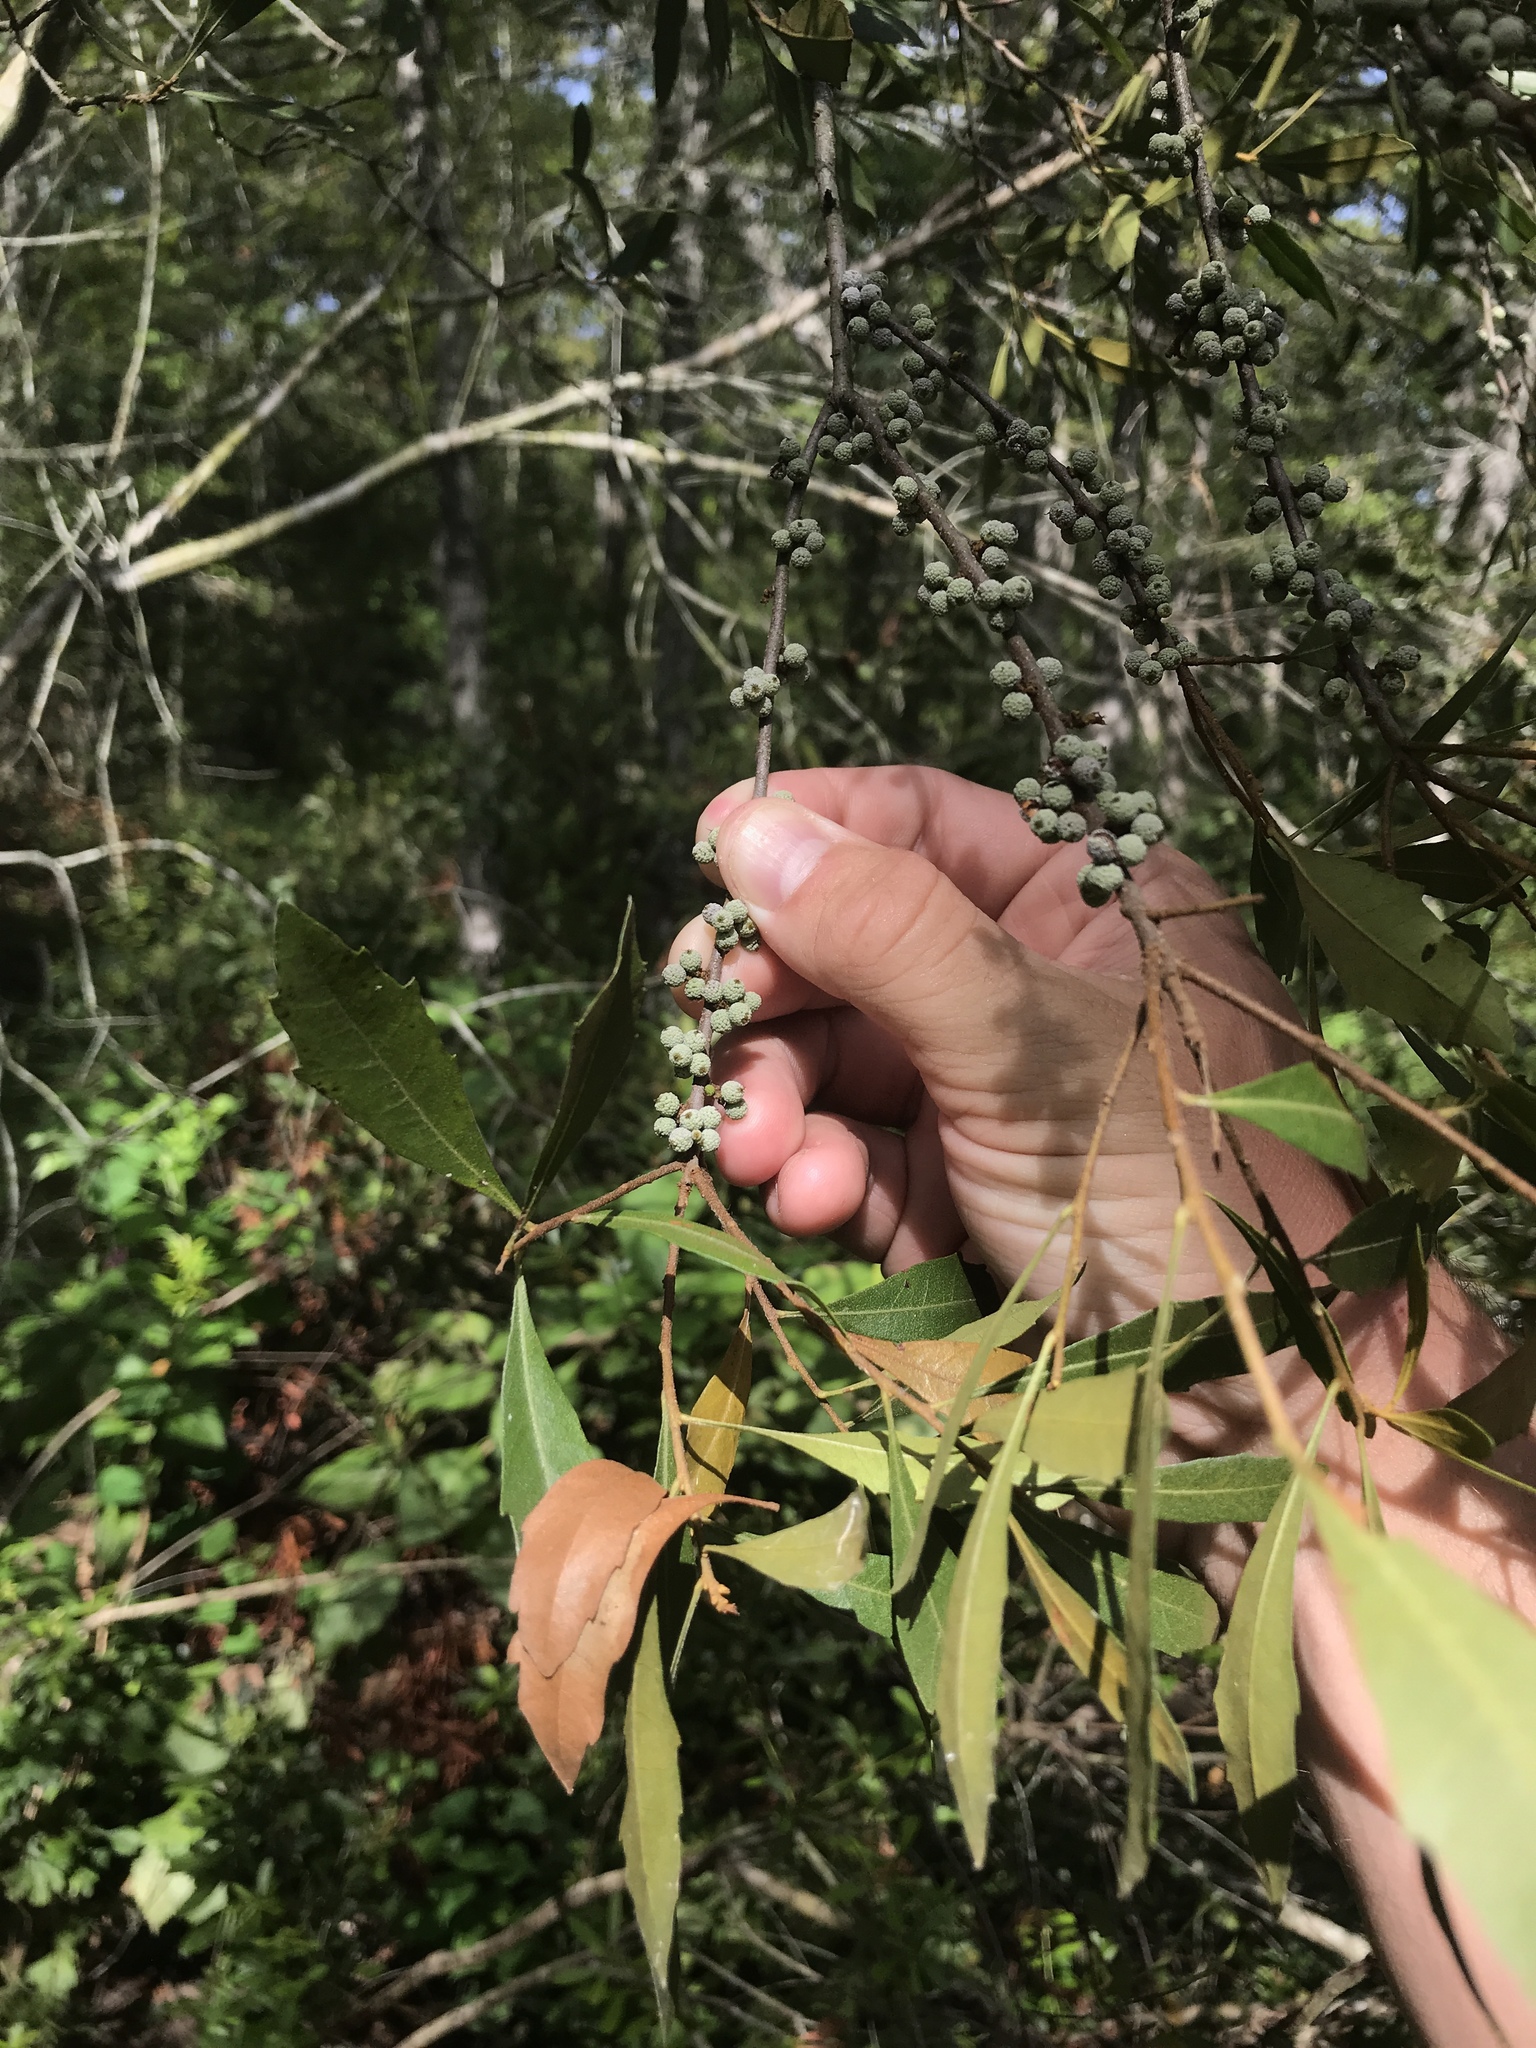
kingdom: Plantae
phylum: Tracheophyta
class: Magnoliopsida
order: Fagales
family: Myricaceae
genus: Morella
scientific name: Morella cerifera
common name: Wax myrtle
